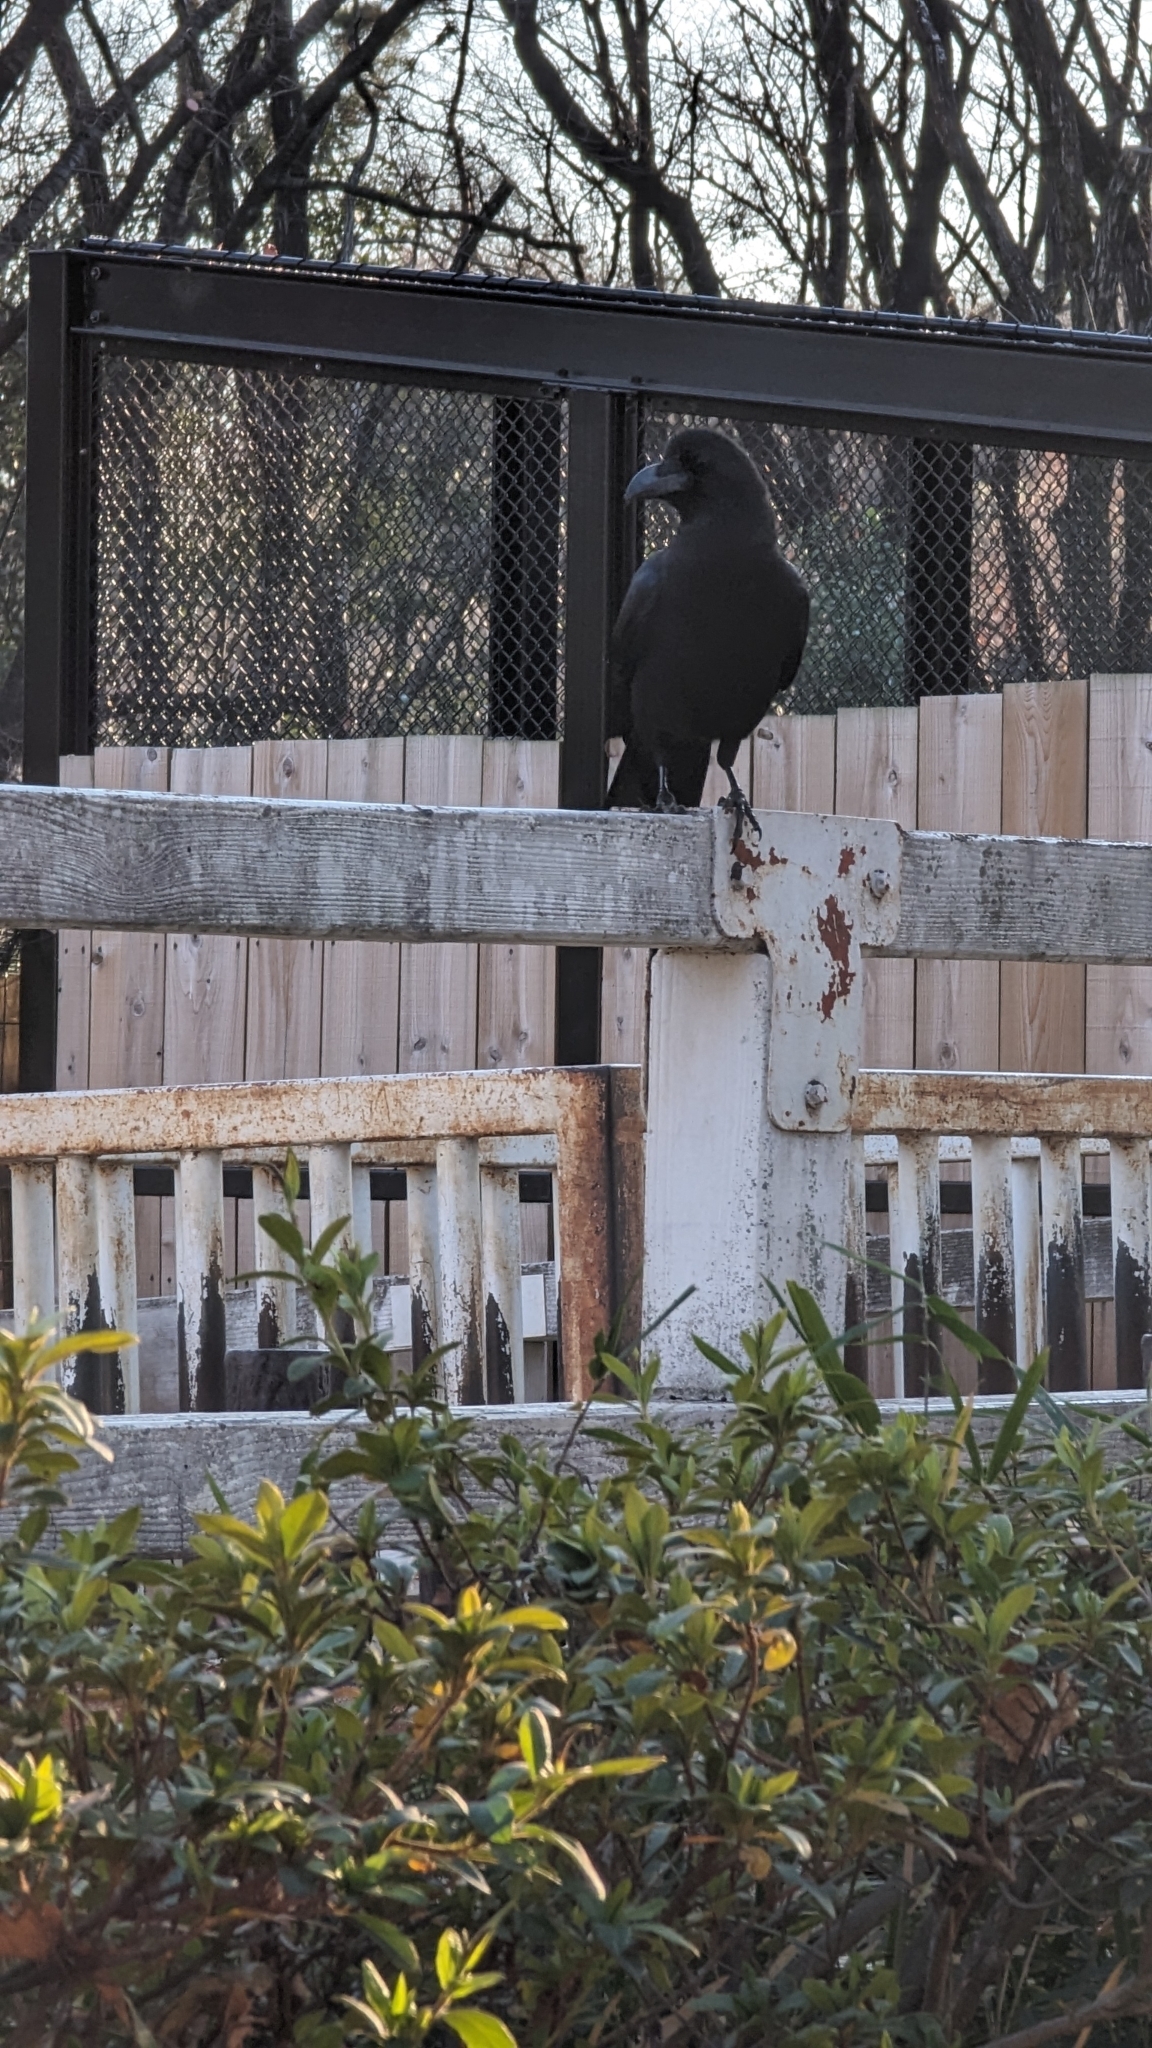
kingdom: Animalia
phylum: Chordata
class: Aves
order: Passeriformes
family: Corvidae
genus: Corvus
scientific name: Corvus macrorhynchos
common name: Large-billed crow
